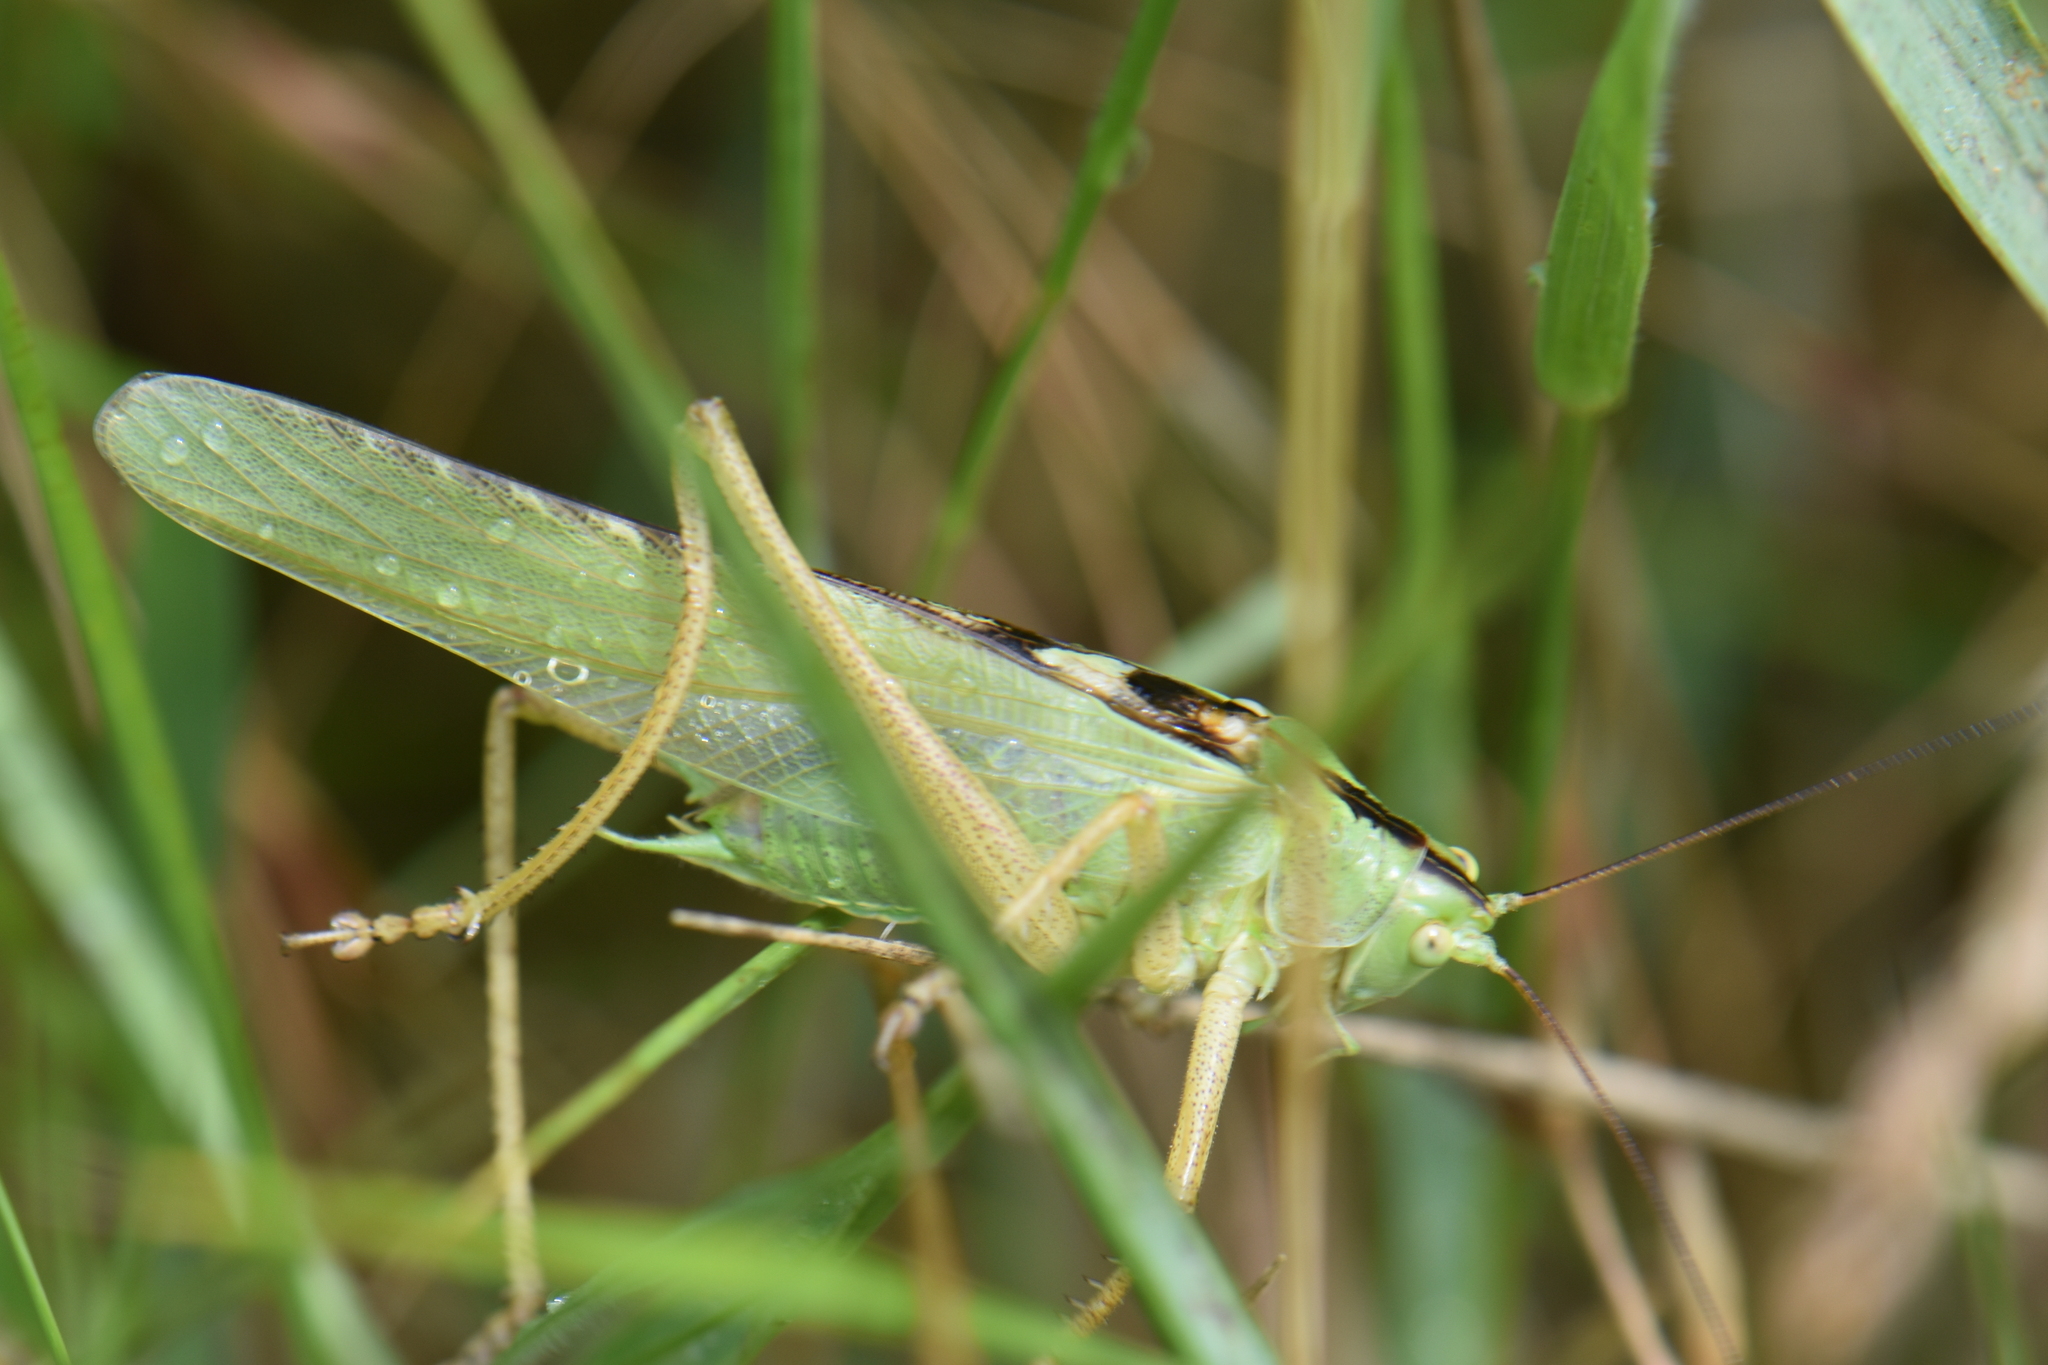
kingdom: Animalia
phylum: Arthropoda
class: Insecta
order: Orthoptera
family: Tettigoniidae
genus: Tettigonia
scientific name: Tettigonia viridissima
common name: Great green bush-cricket
